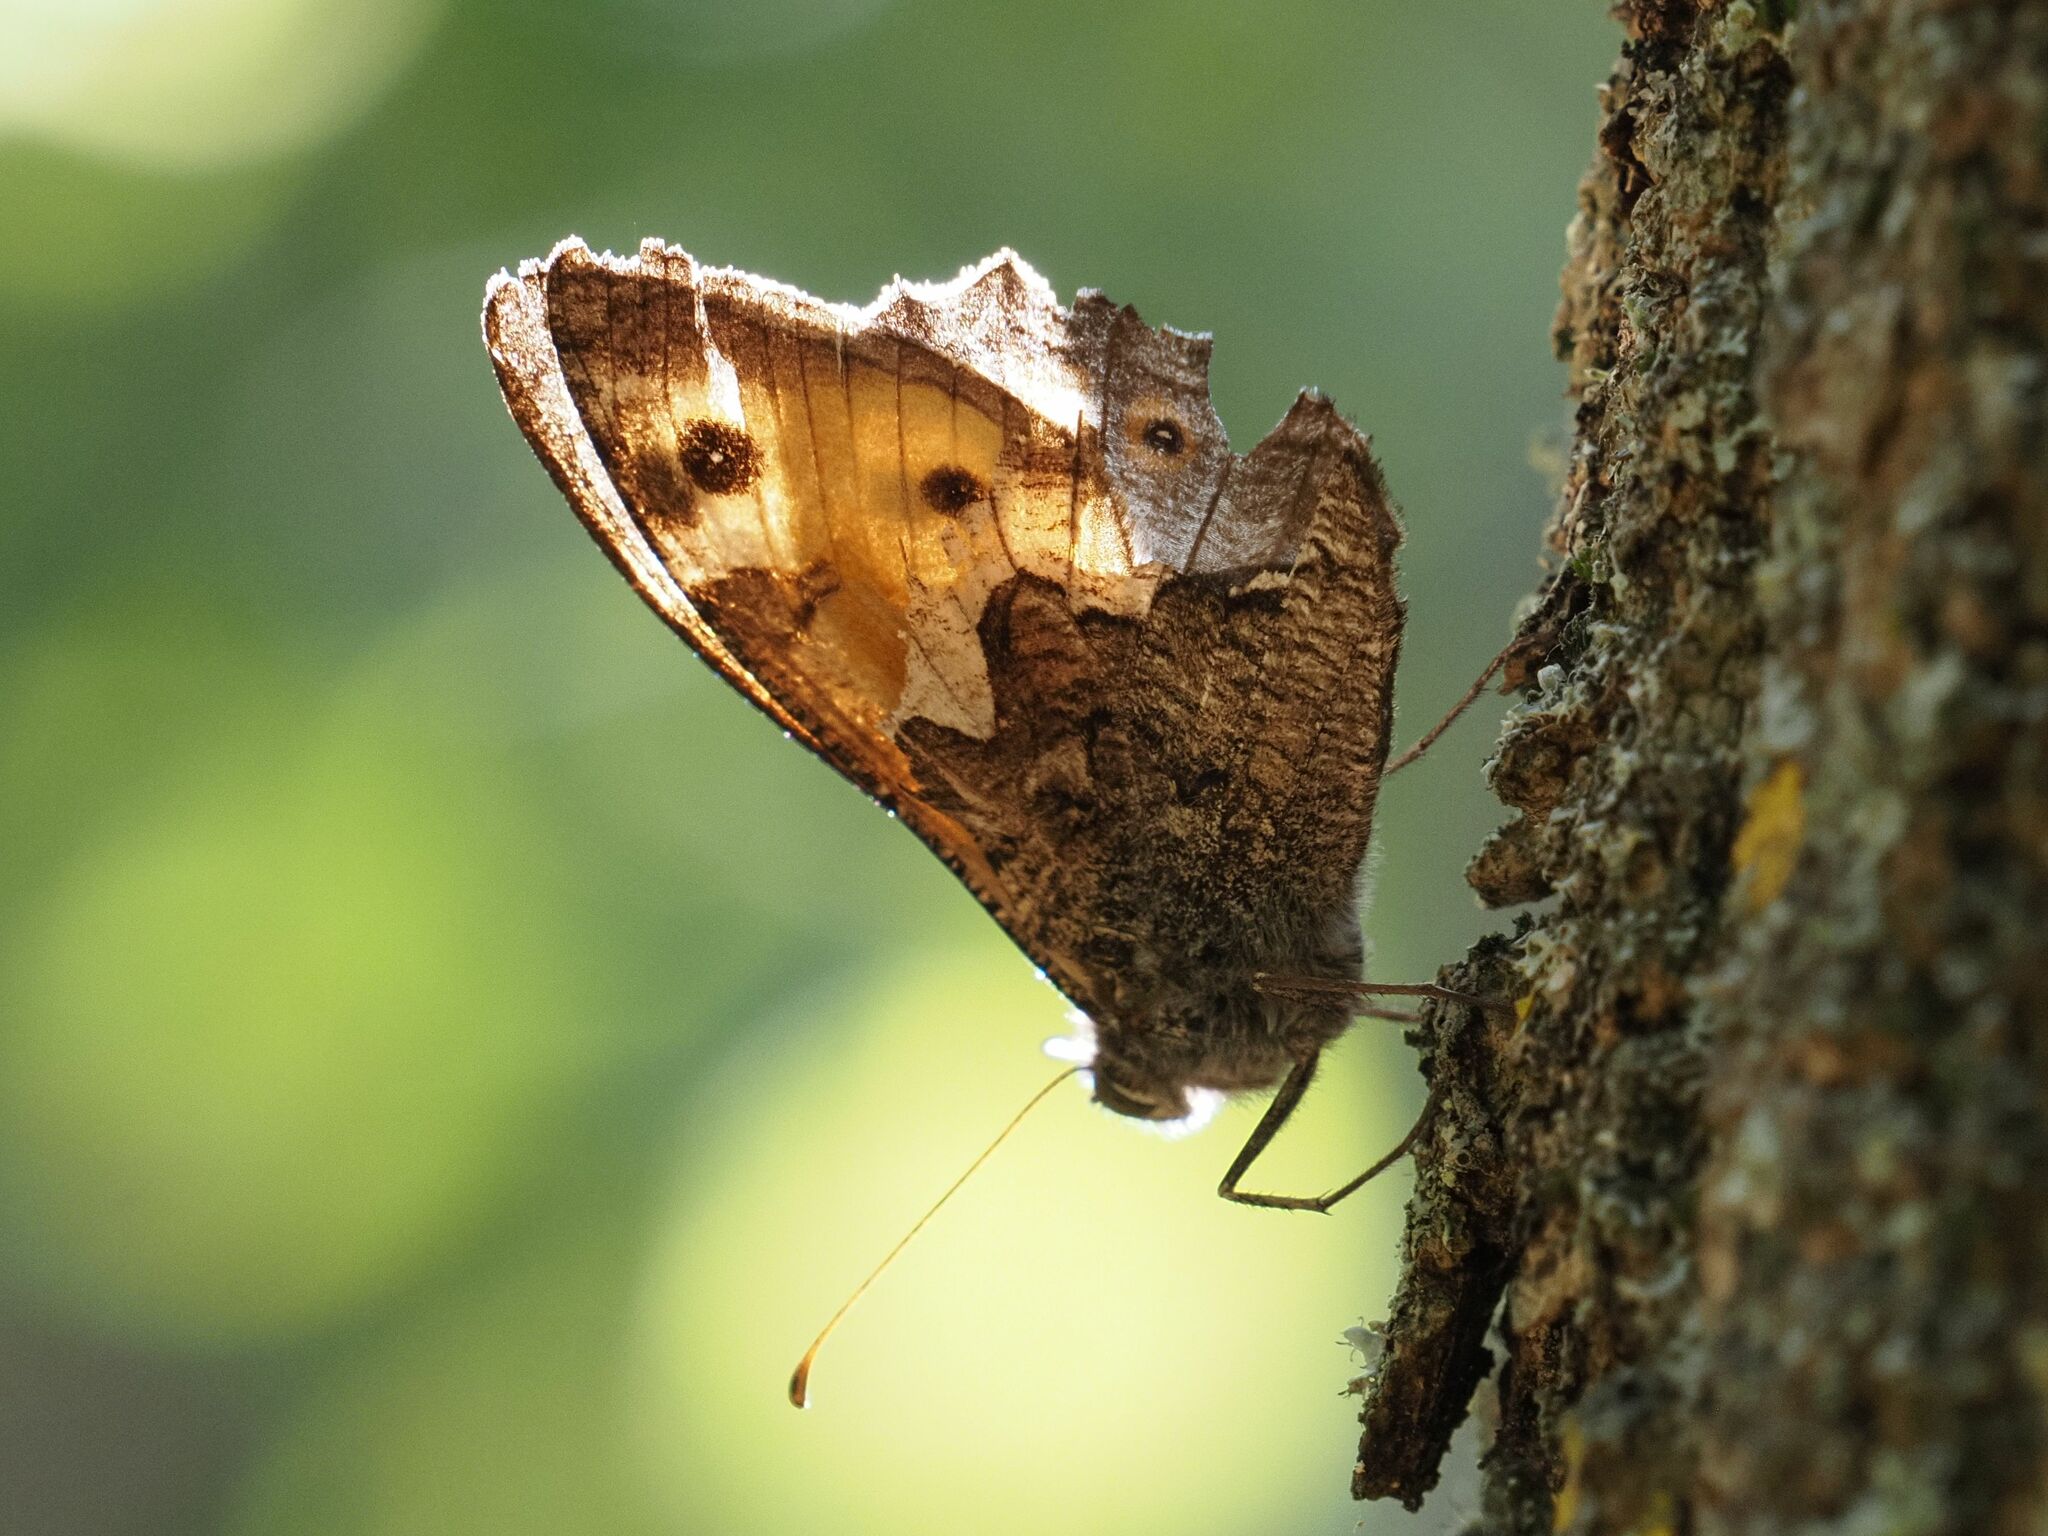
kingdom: Animalia
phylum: Arthropoda
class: Insecta
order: Lepidoptera
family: Nymphalidae
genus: Hipparchia
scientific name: Hipparchia semele
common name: Grayling
